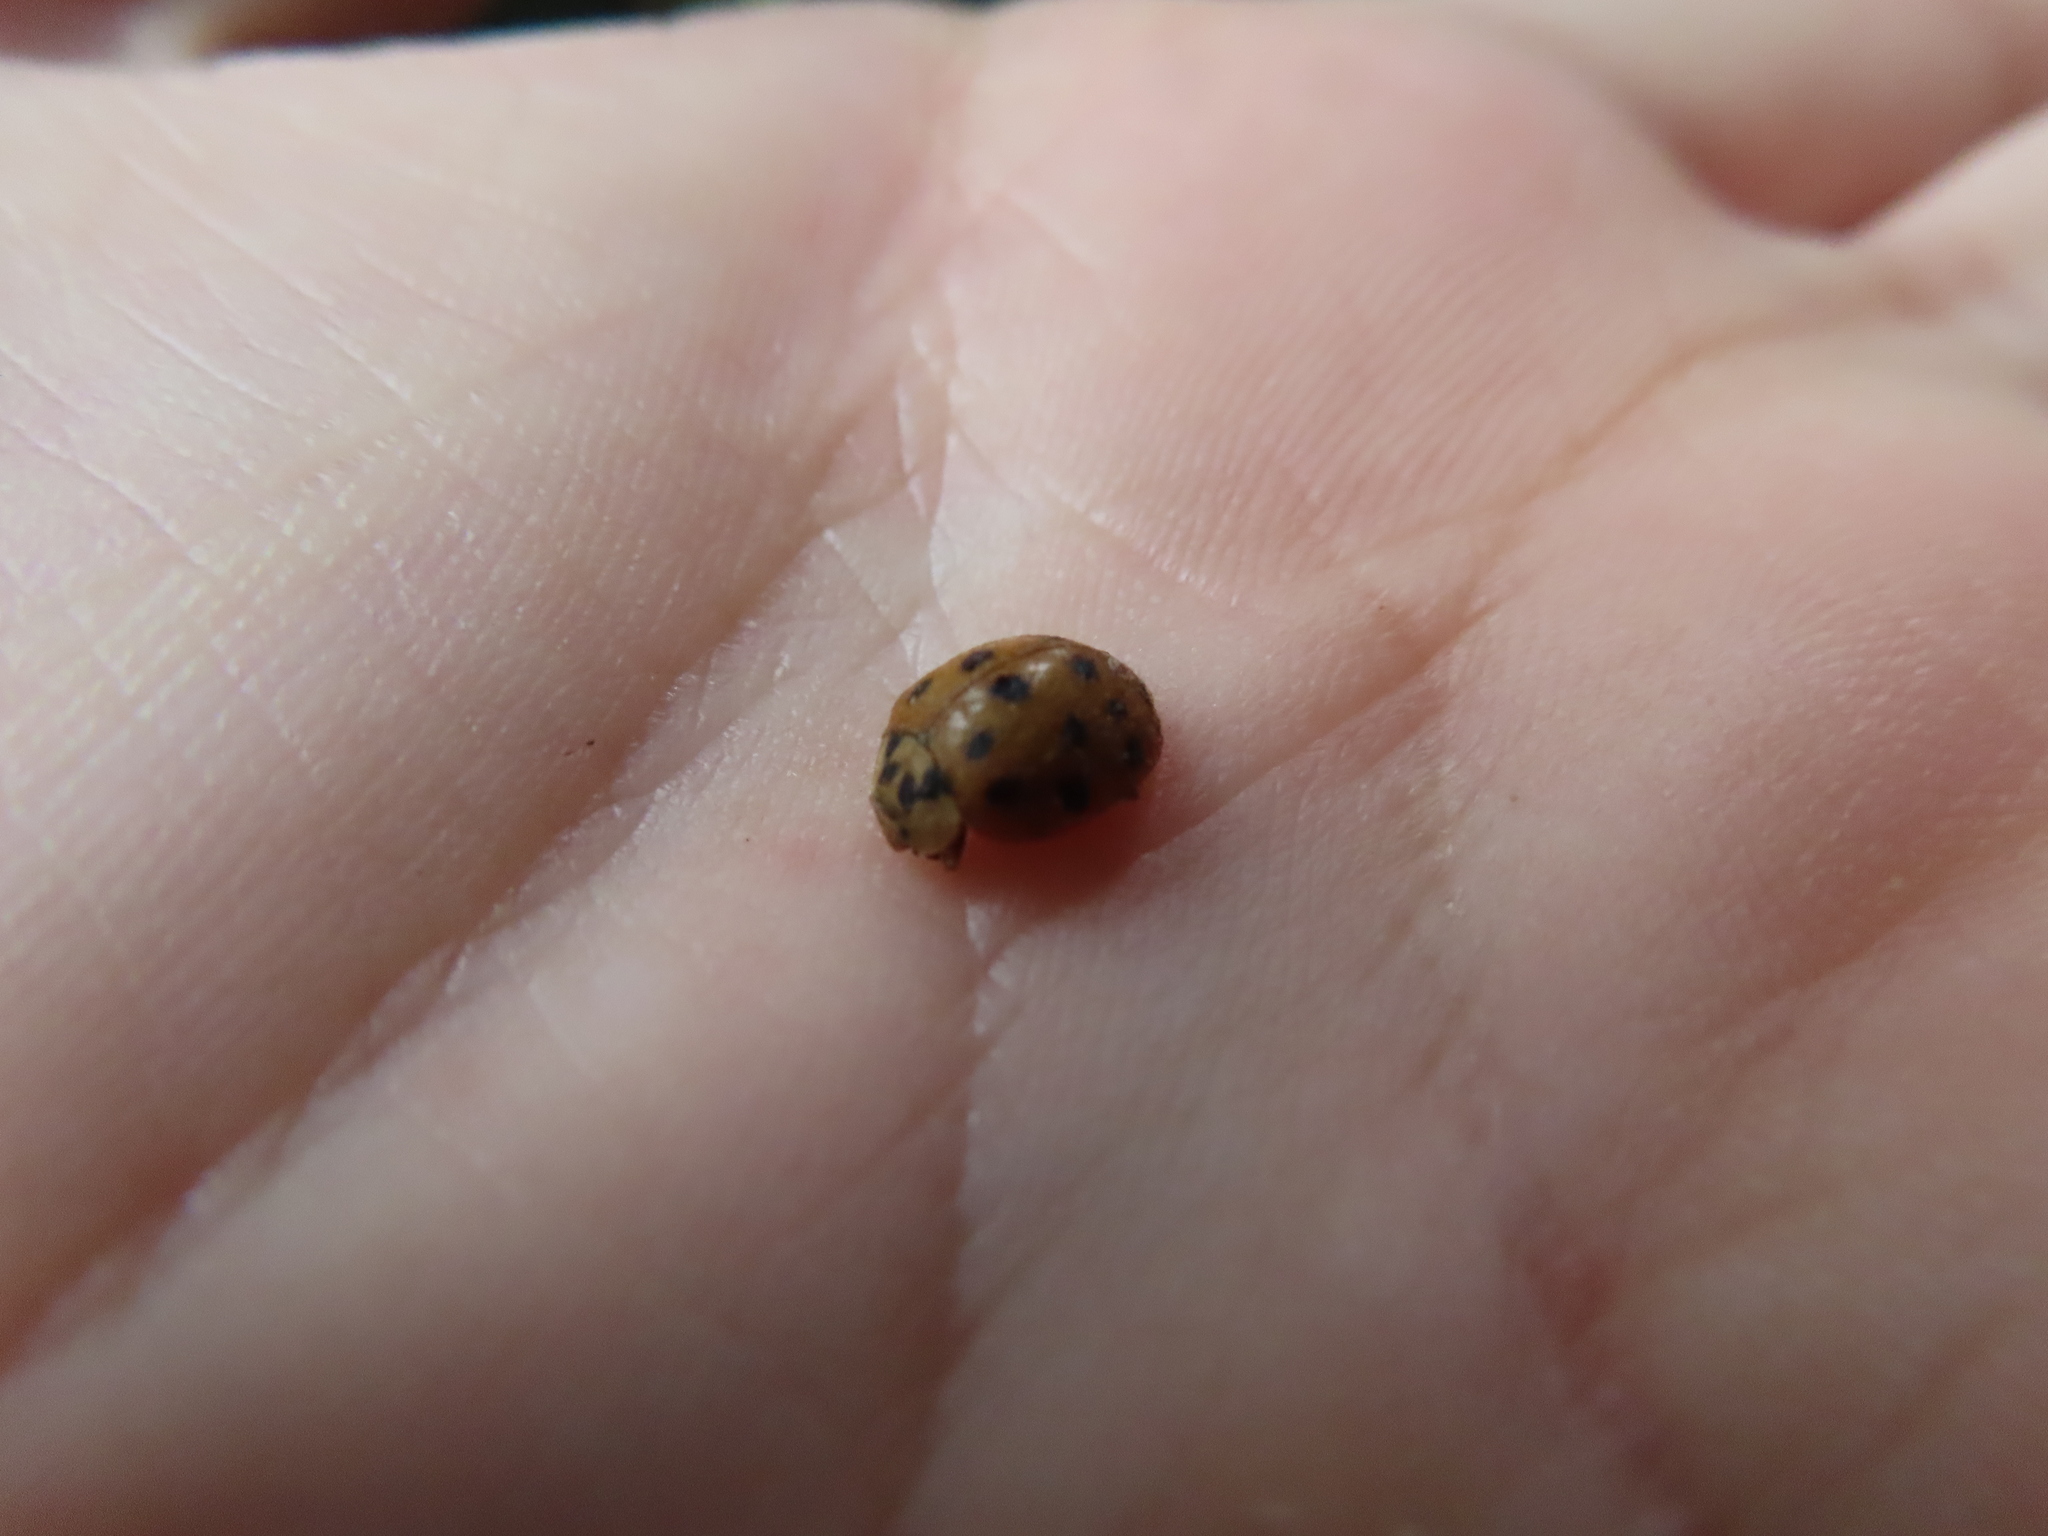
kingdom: Animalia
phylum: Arthropoda
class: Insecta
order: Coleoptera
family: Coccinellidae
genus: Harmonia
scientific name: Harmonia axyridis
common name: Harlequin ladybird
